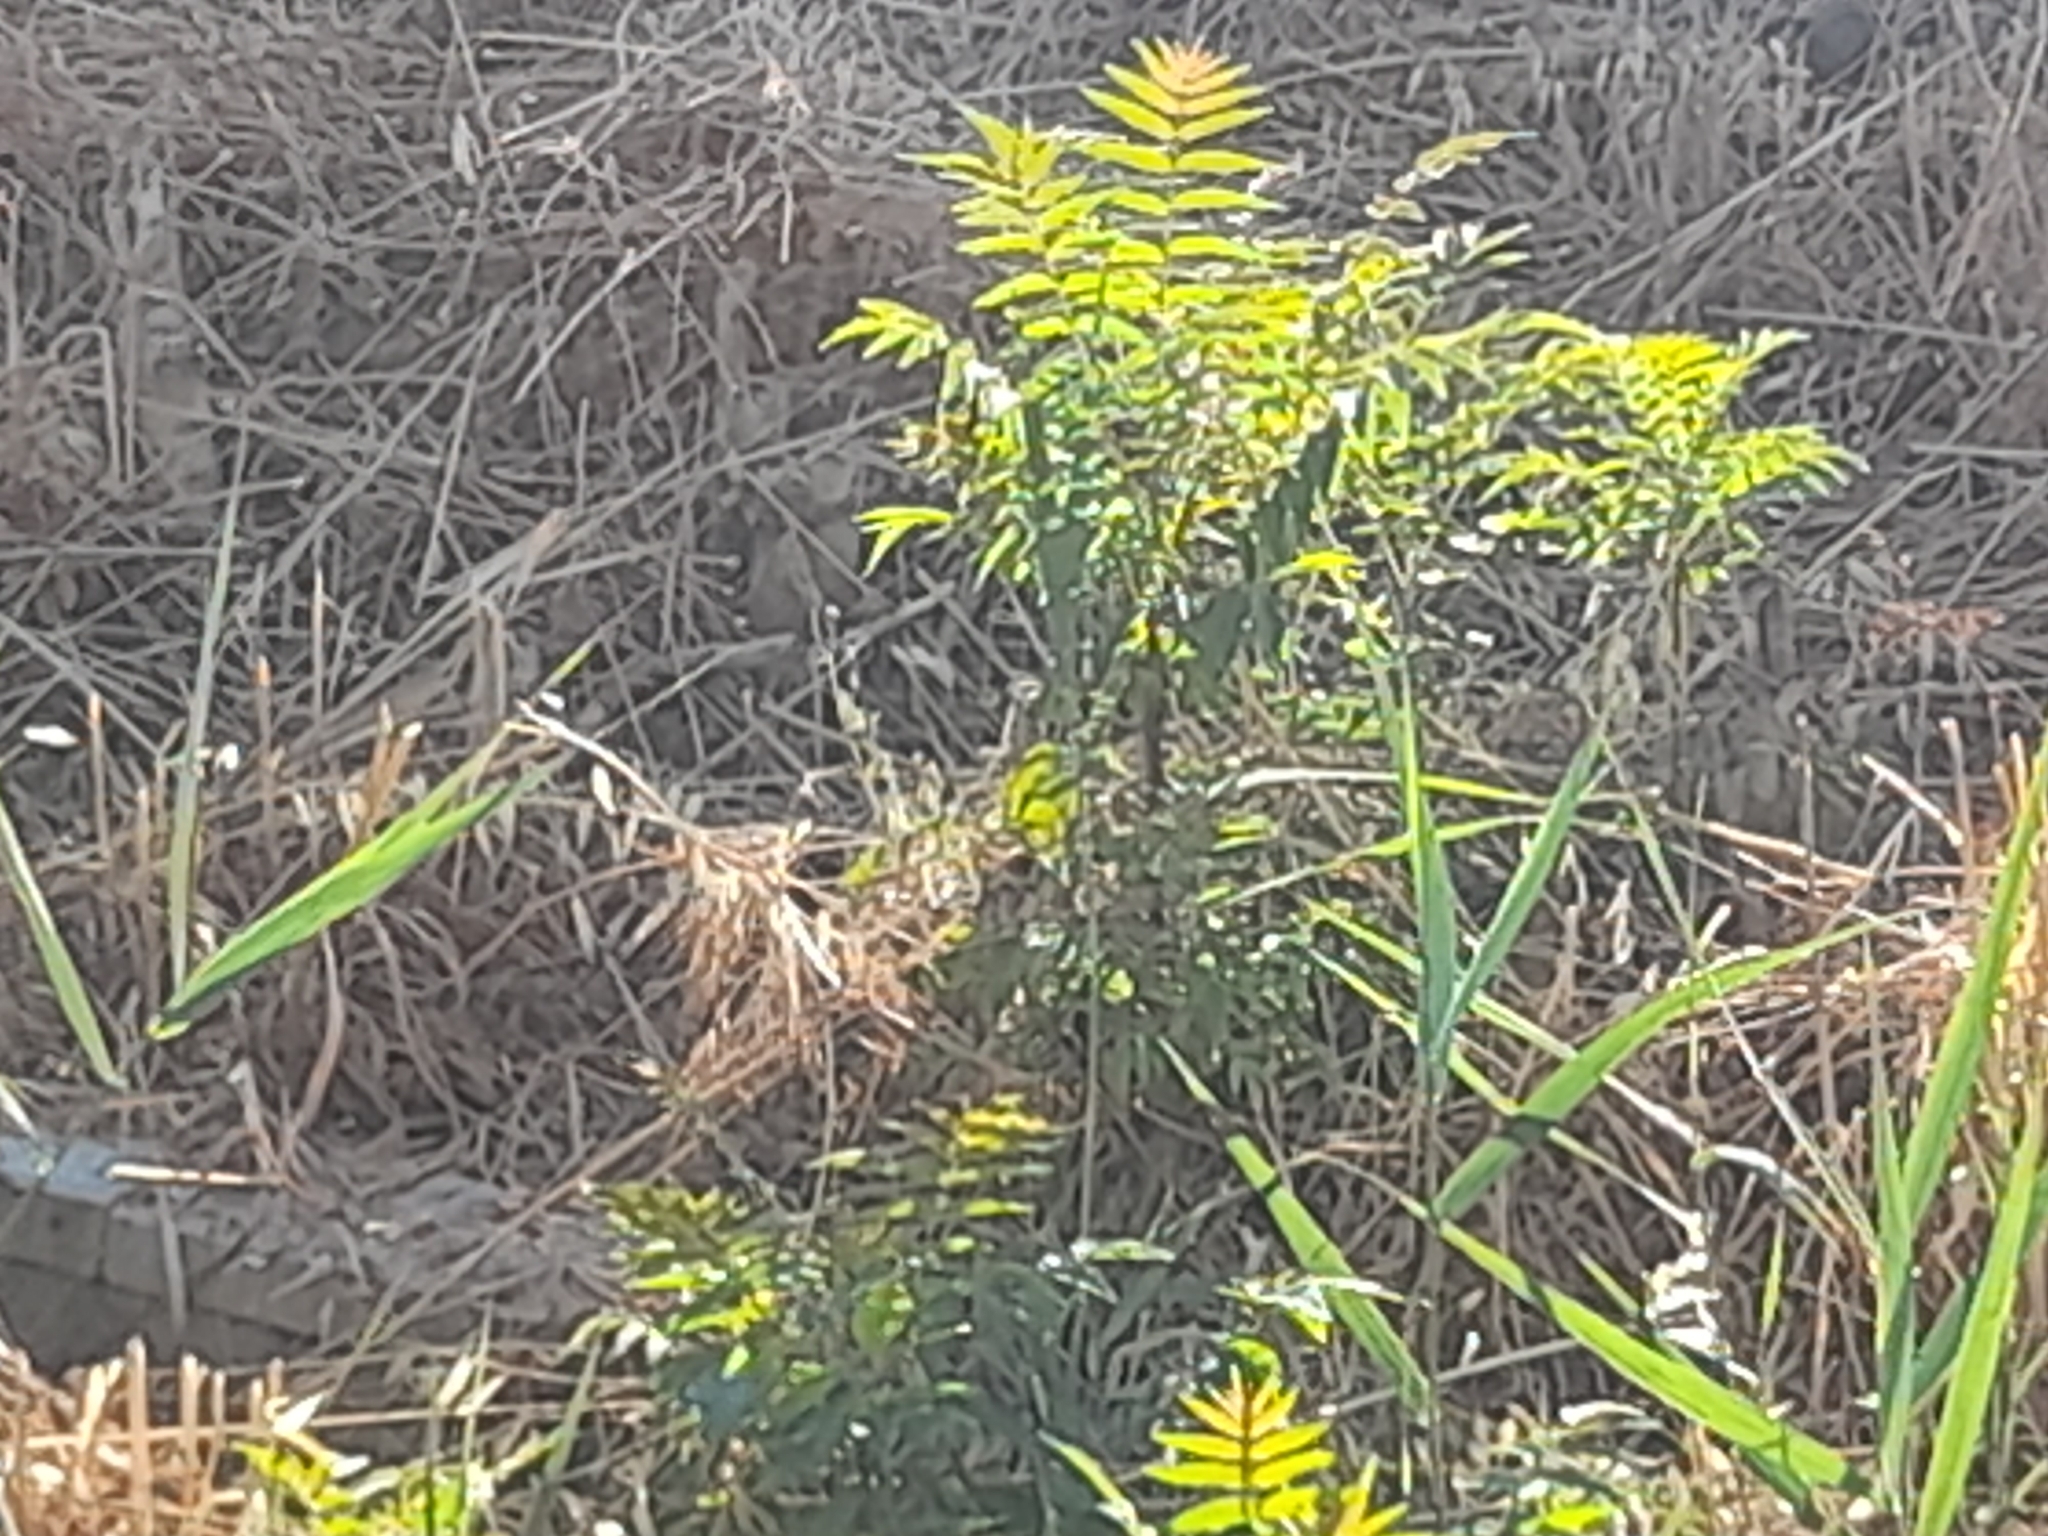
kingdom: Plantae
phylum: Tracheophyta
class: Magnoliopsida
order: Sapindales
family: Simaroubaceae
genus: Ailanthus
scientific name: Ailanthus altissima
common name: Tree-of-heaven
